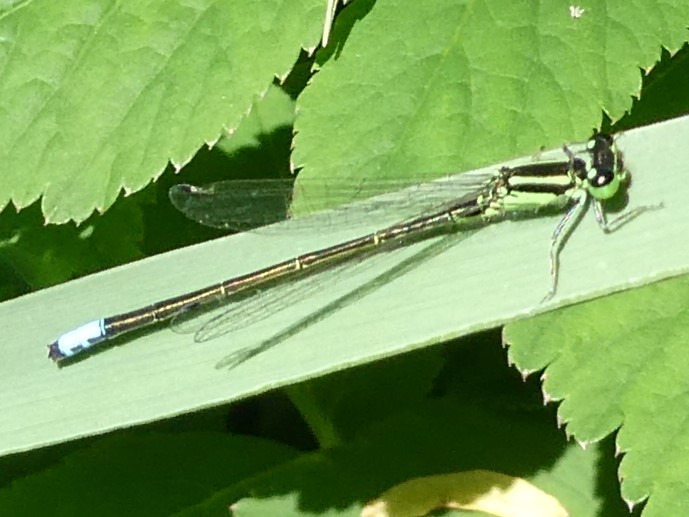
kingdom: Animalia
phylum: Arthropoda
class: Insecta
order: Odonata
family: Coenagrionidae
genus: Ischnura
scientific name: Ischnura verticalis
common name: Eastern forktail
